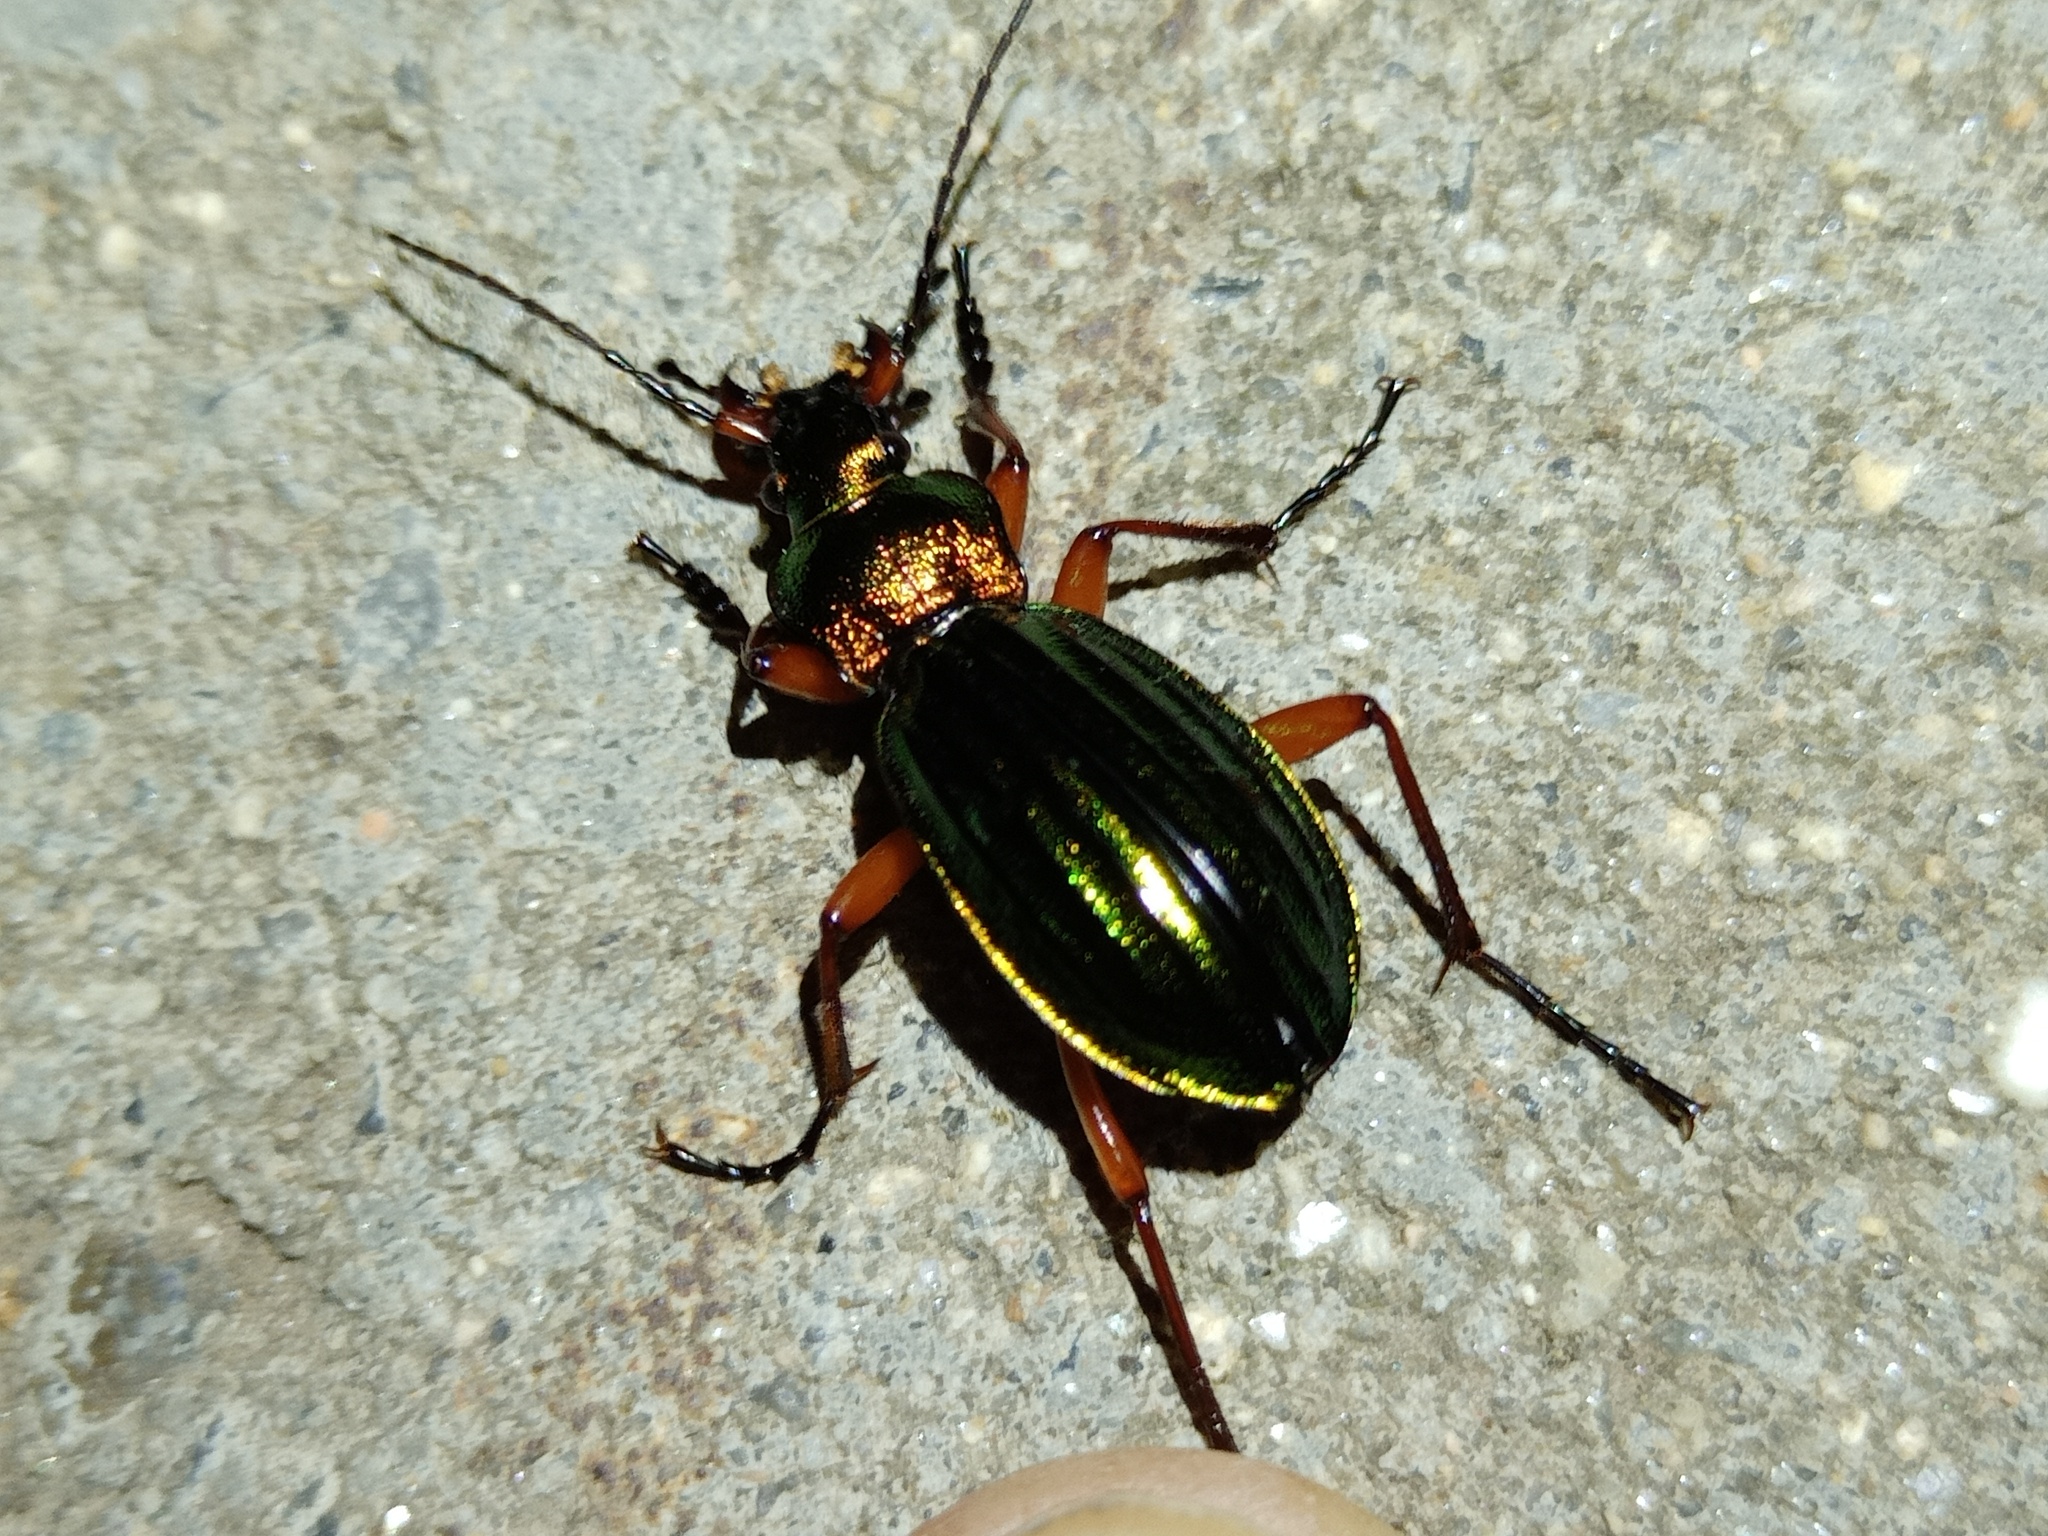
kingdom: Animalia
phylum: Arthropoda
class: Insecta
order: Coleoptera
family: Carabidae
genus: Carabus
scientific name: Carabus auronitens
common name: Carabus auronitens
